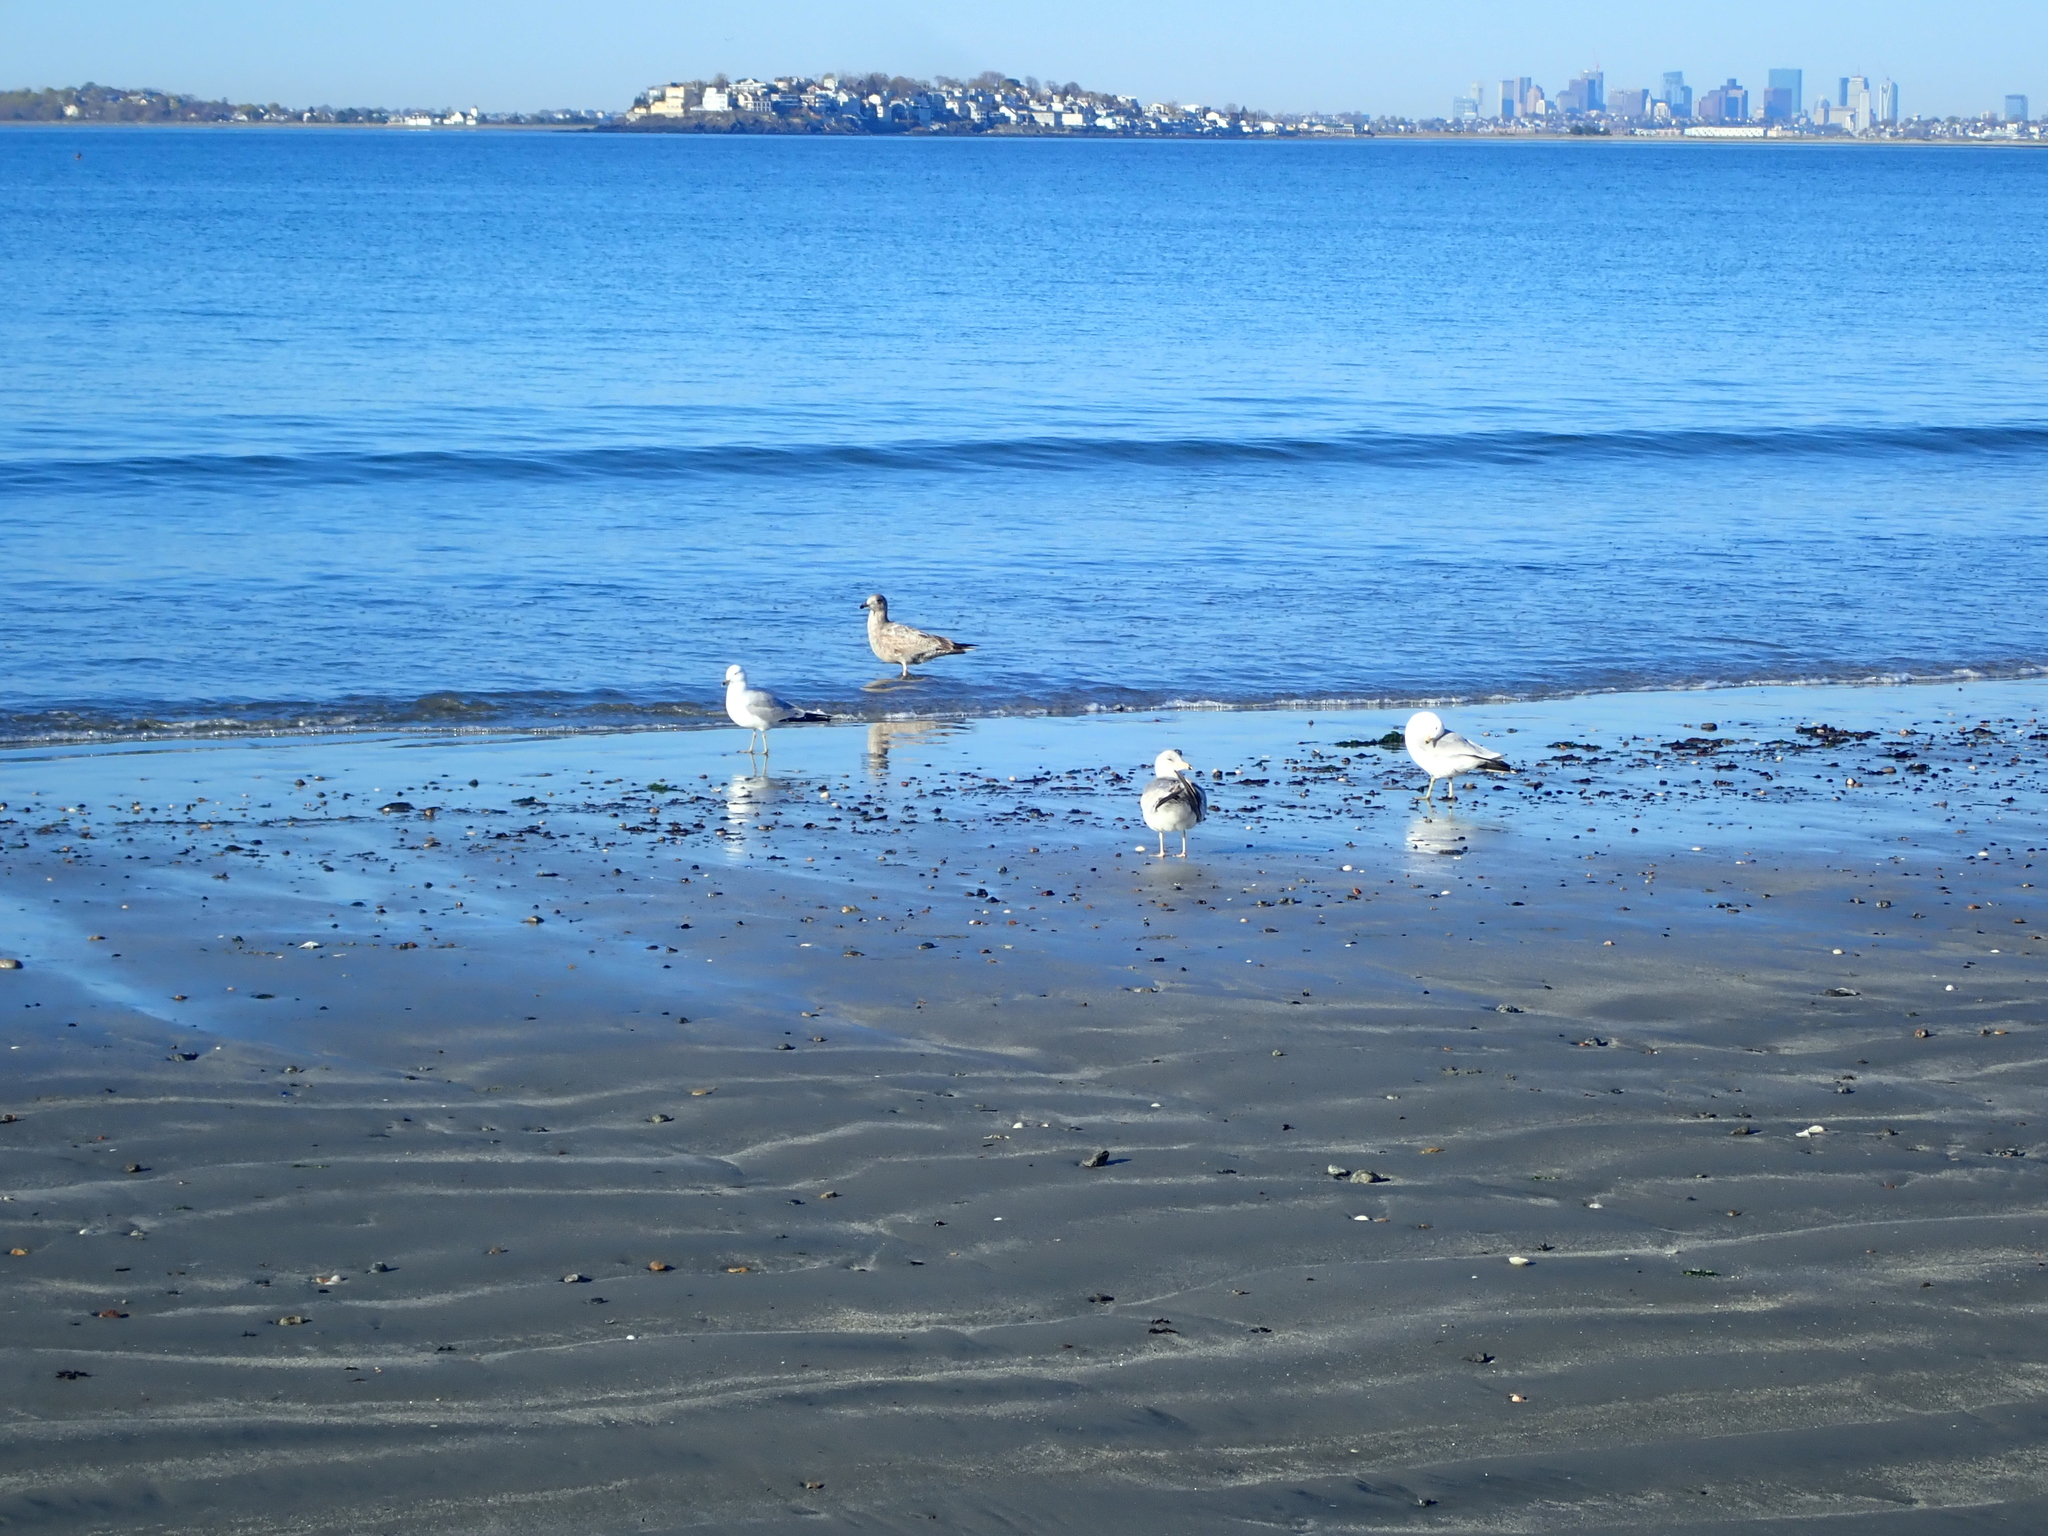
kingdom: Animalia
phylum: Chordata
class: Aves
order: Charadriiformes
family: Laridae
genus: Larus
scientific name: Larus delawarensis
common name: Ring-billed gull
